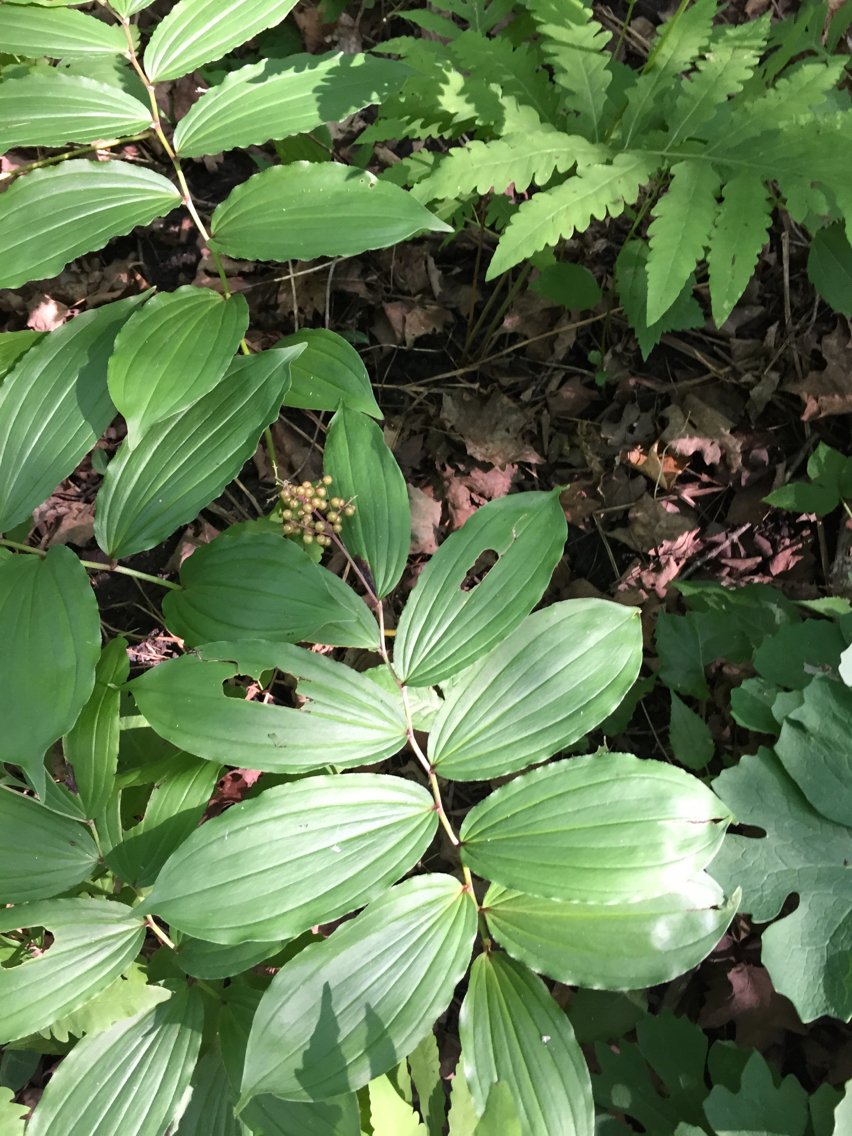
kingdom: Plantae
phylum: Tracheophyta
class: Liliopsida
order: Asparagales
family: Asparagaceae
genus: Maianthemum
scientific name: Maianthemum racemosum
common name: False spikenard
